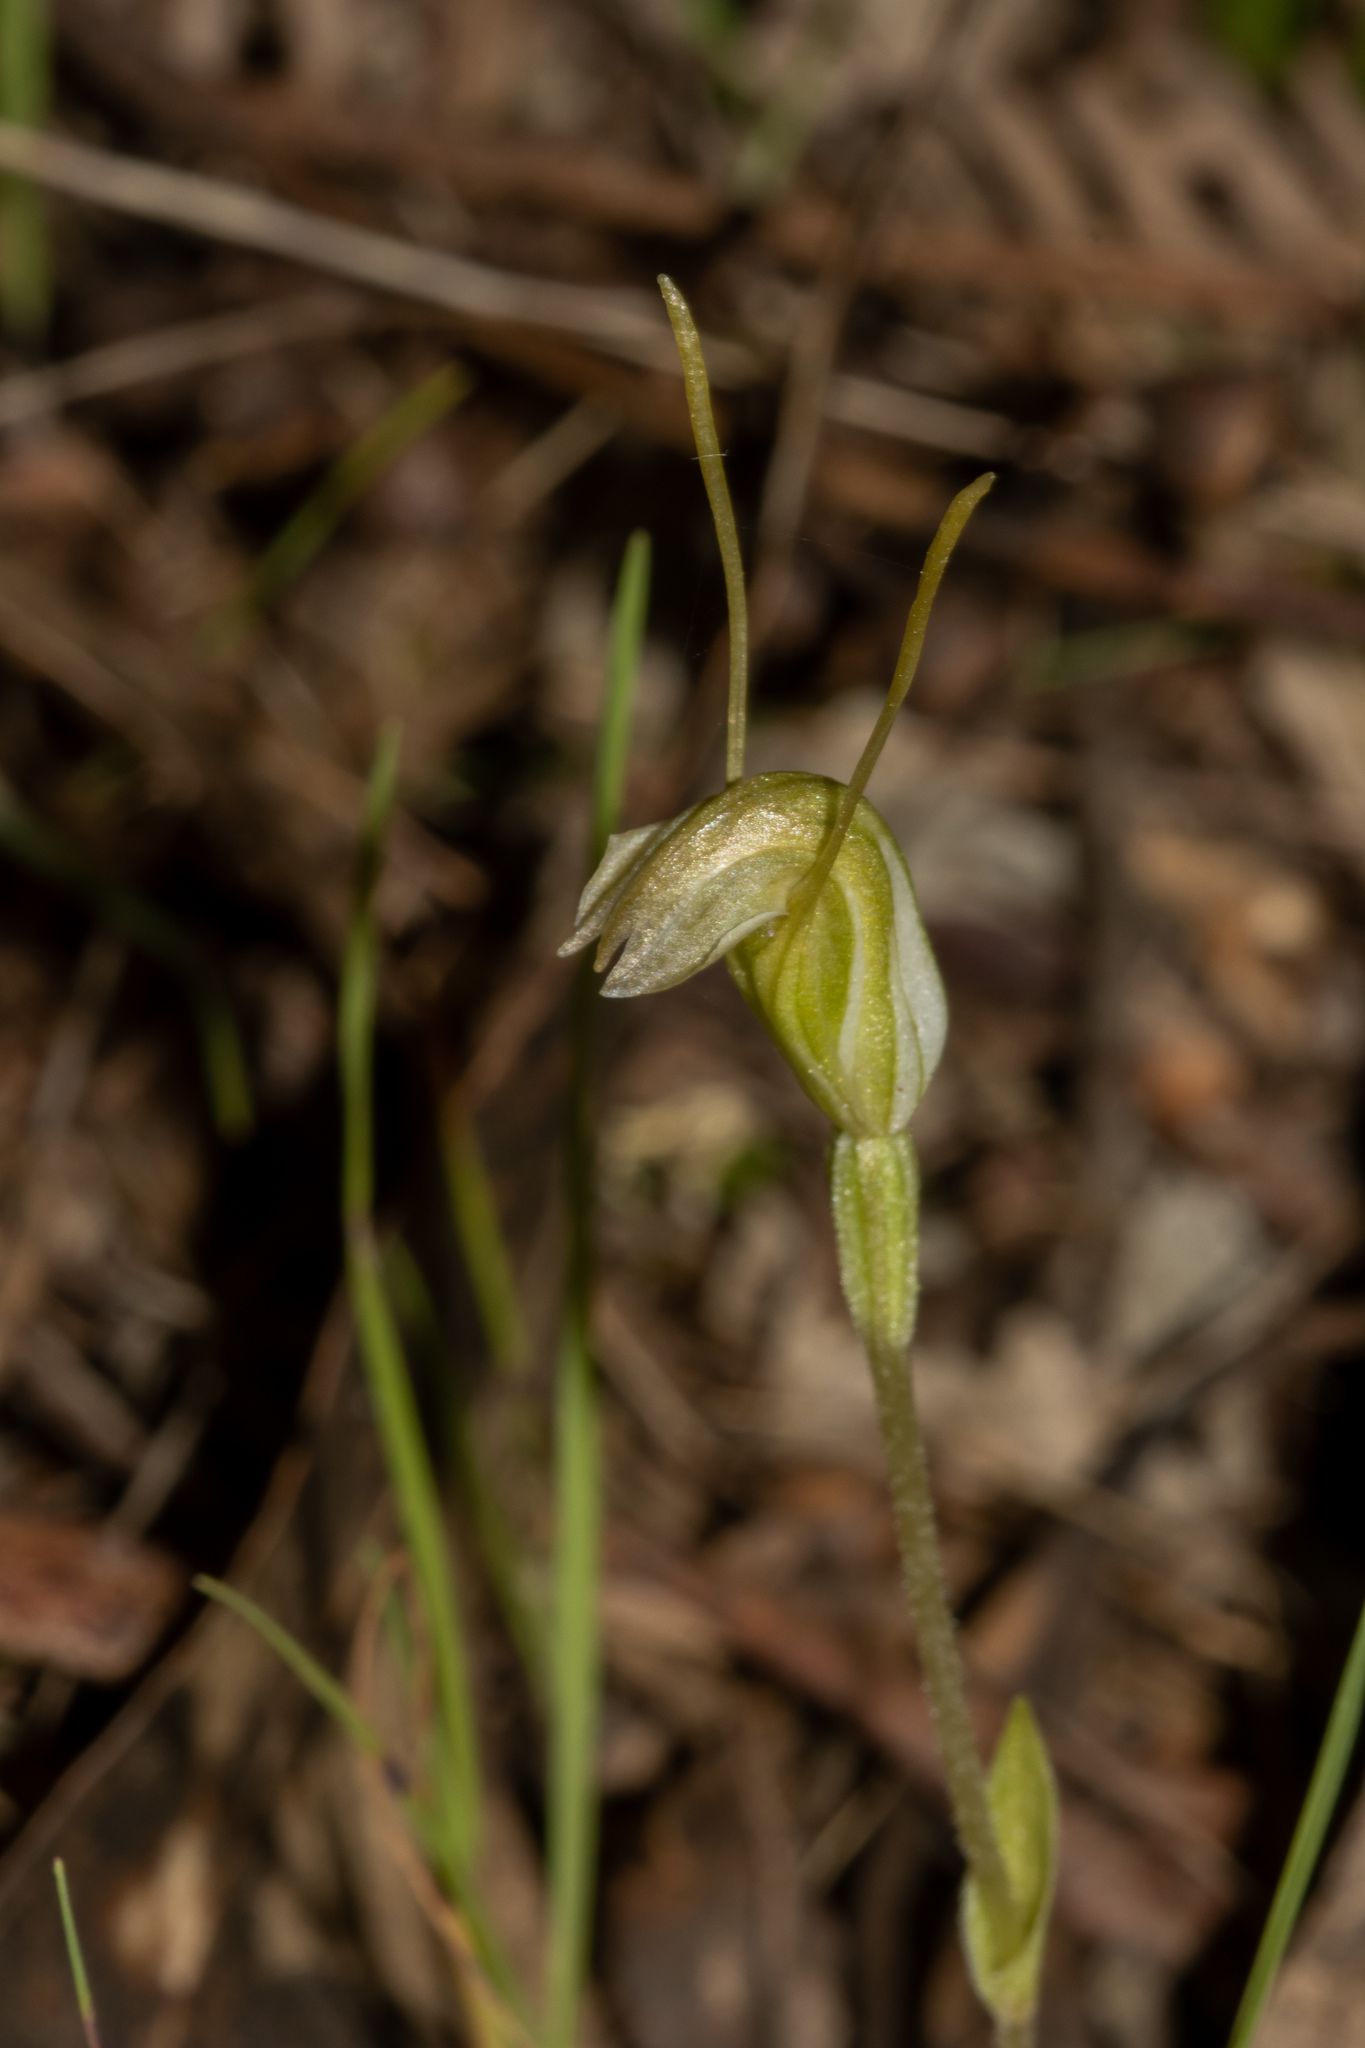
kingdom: Plantae
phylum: Tracheophyta
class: Liliopsida
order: Asparagales
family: Orchidaceae
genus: Pterostylis
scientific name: Pterostylis nana
